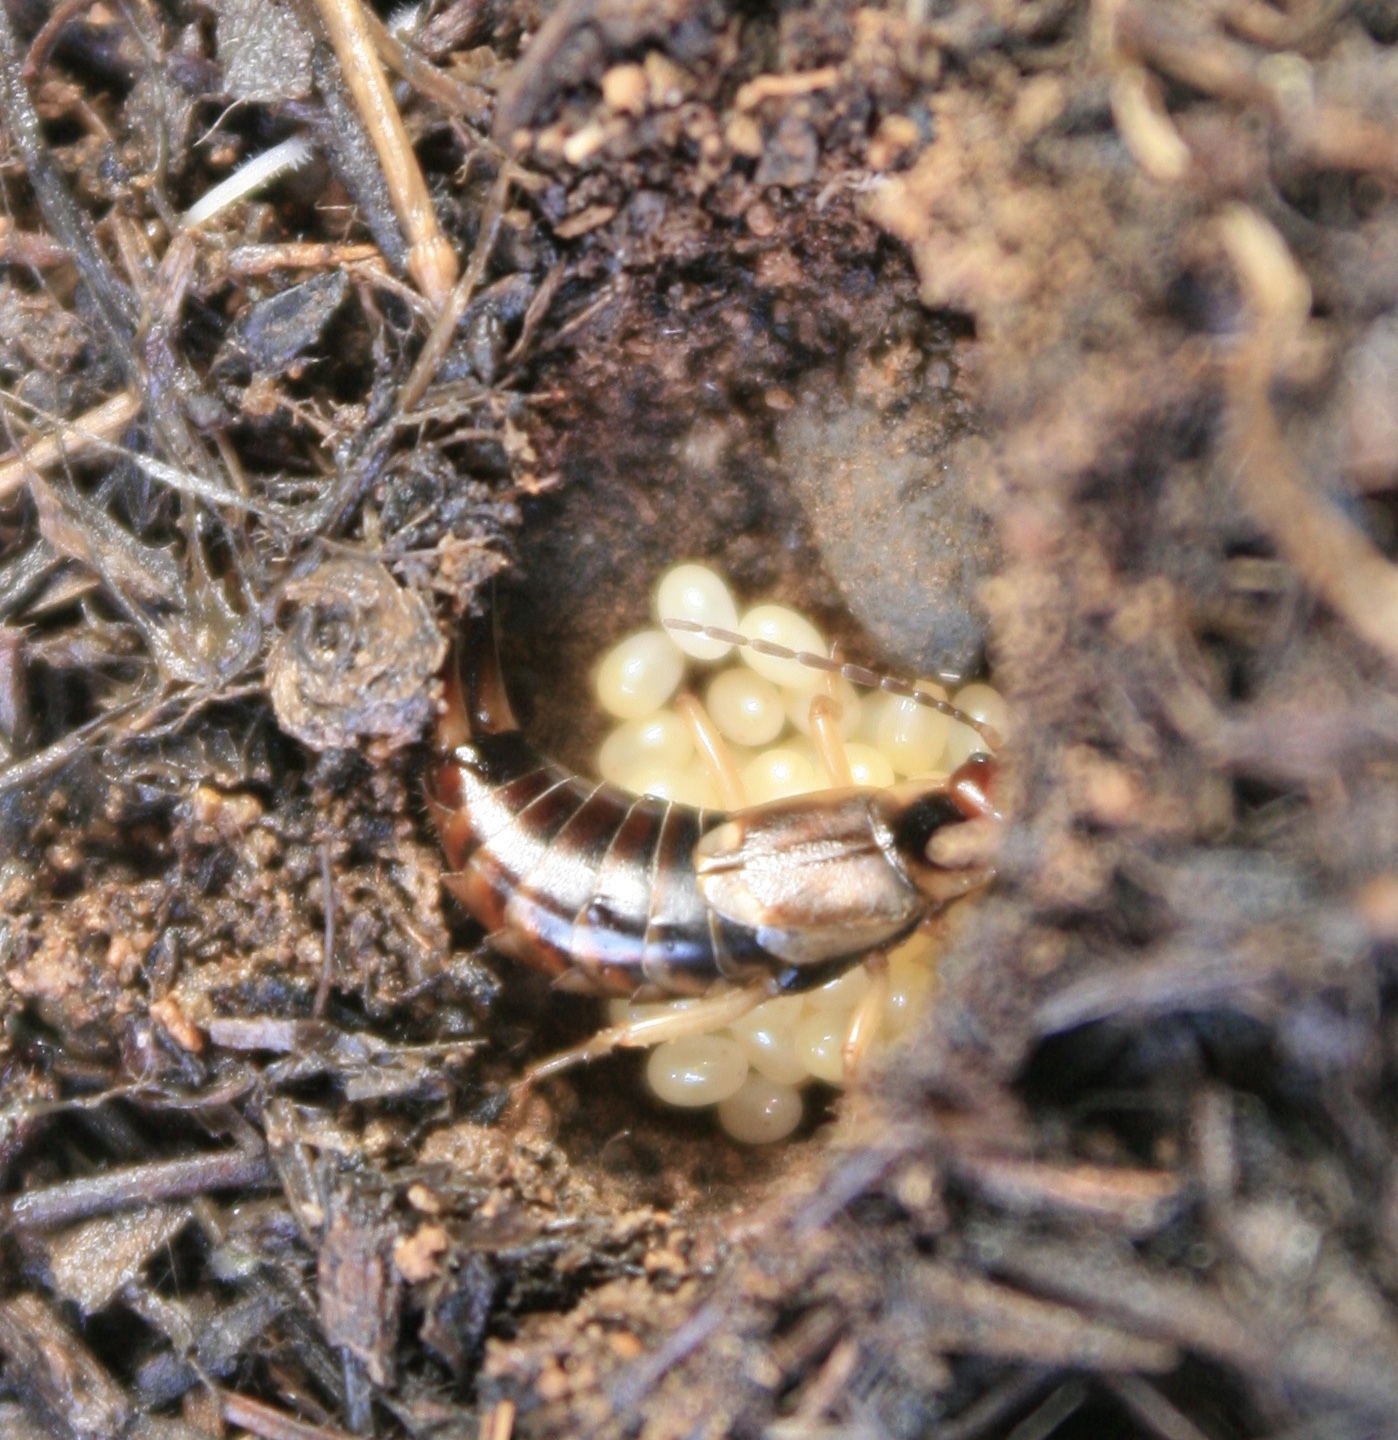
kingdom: Animalia
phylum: Arthropoda
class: Insecta
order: Dermaptera
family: Forficulidae
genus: Forficula
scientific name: Forficula
